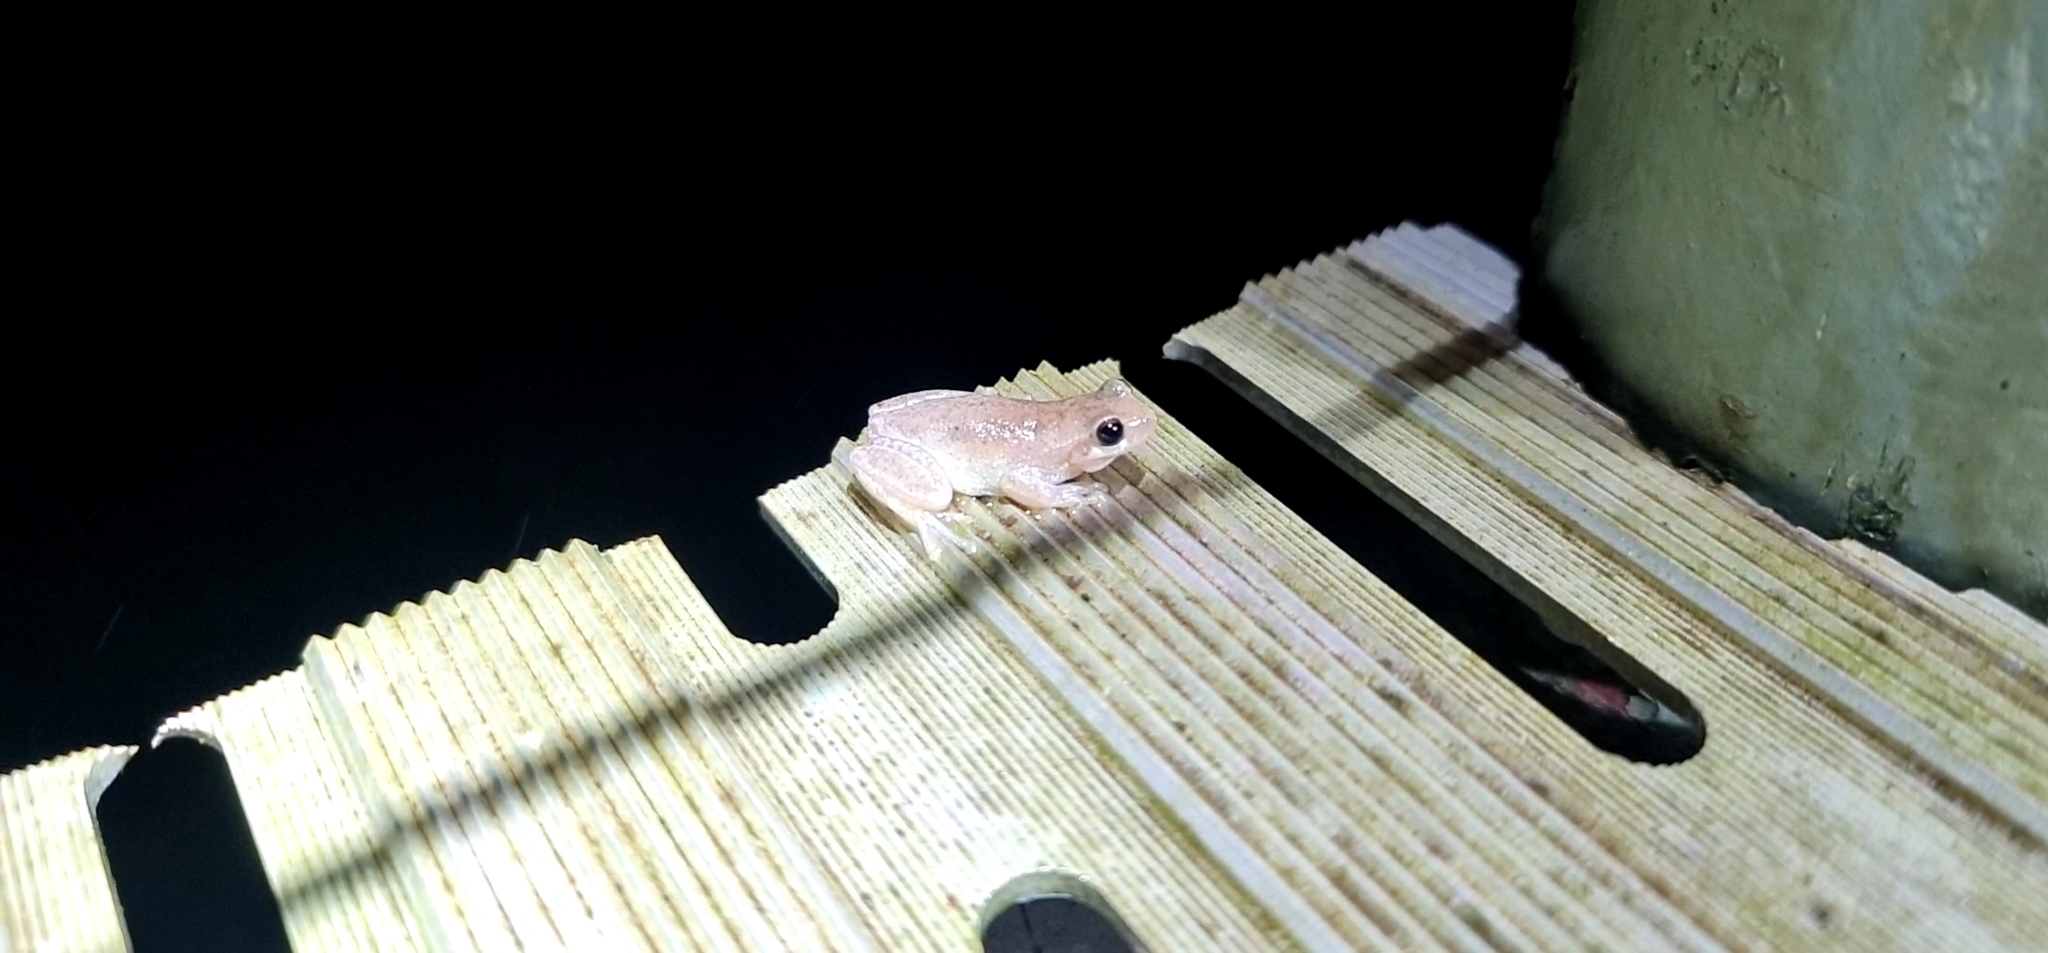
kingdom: Animalia
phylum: Chordata
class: Amphibia
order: Anura
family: Pelodryadidae
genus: Litoria
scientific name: Litoria rubella
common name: Desert tree frog
